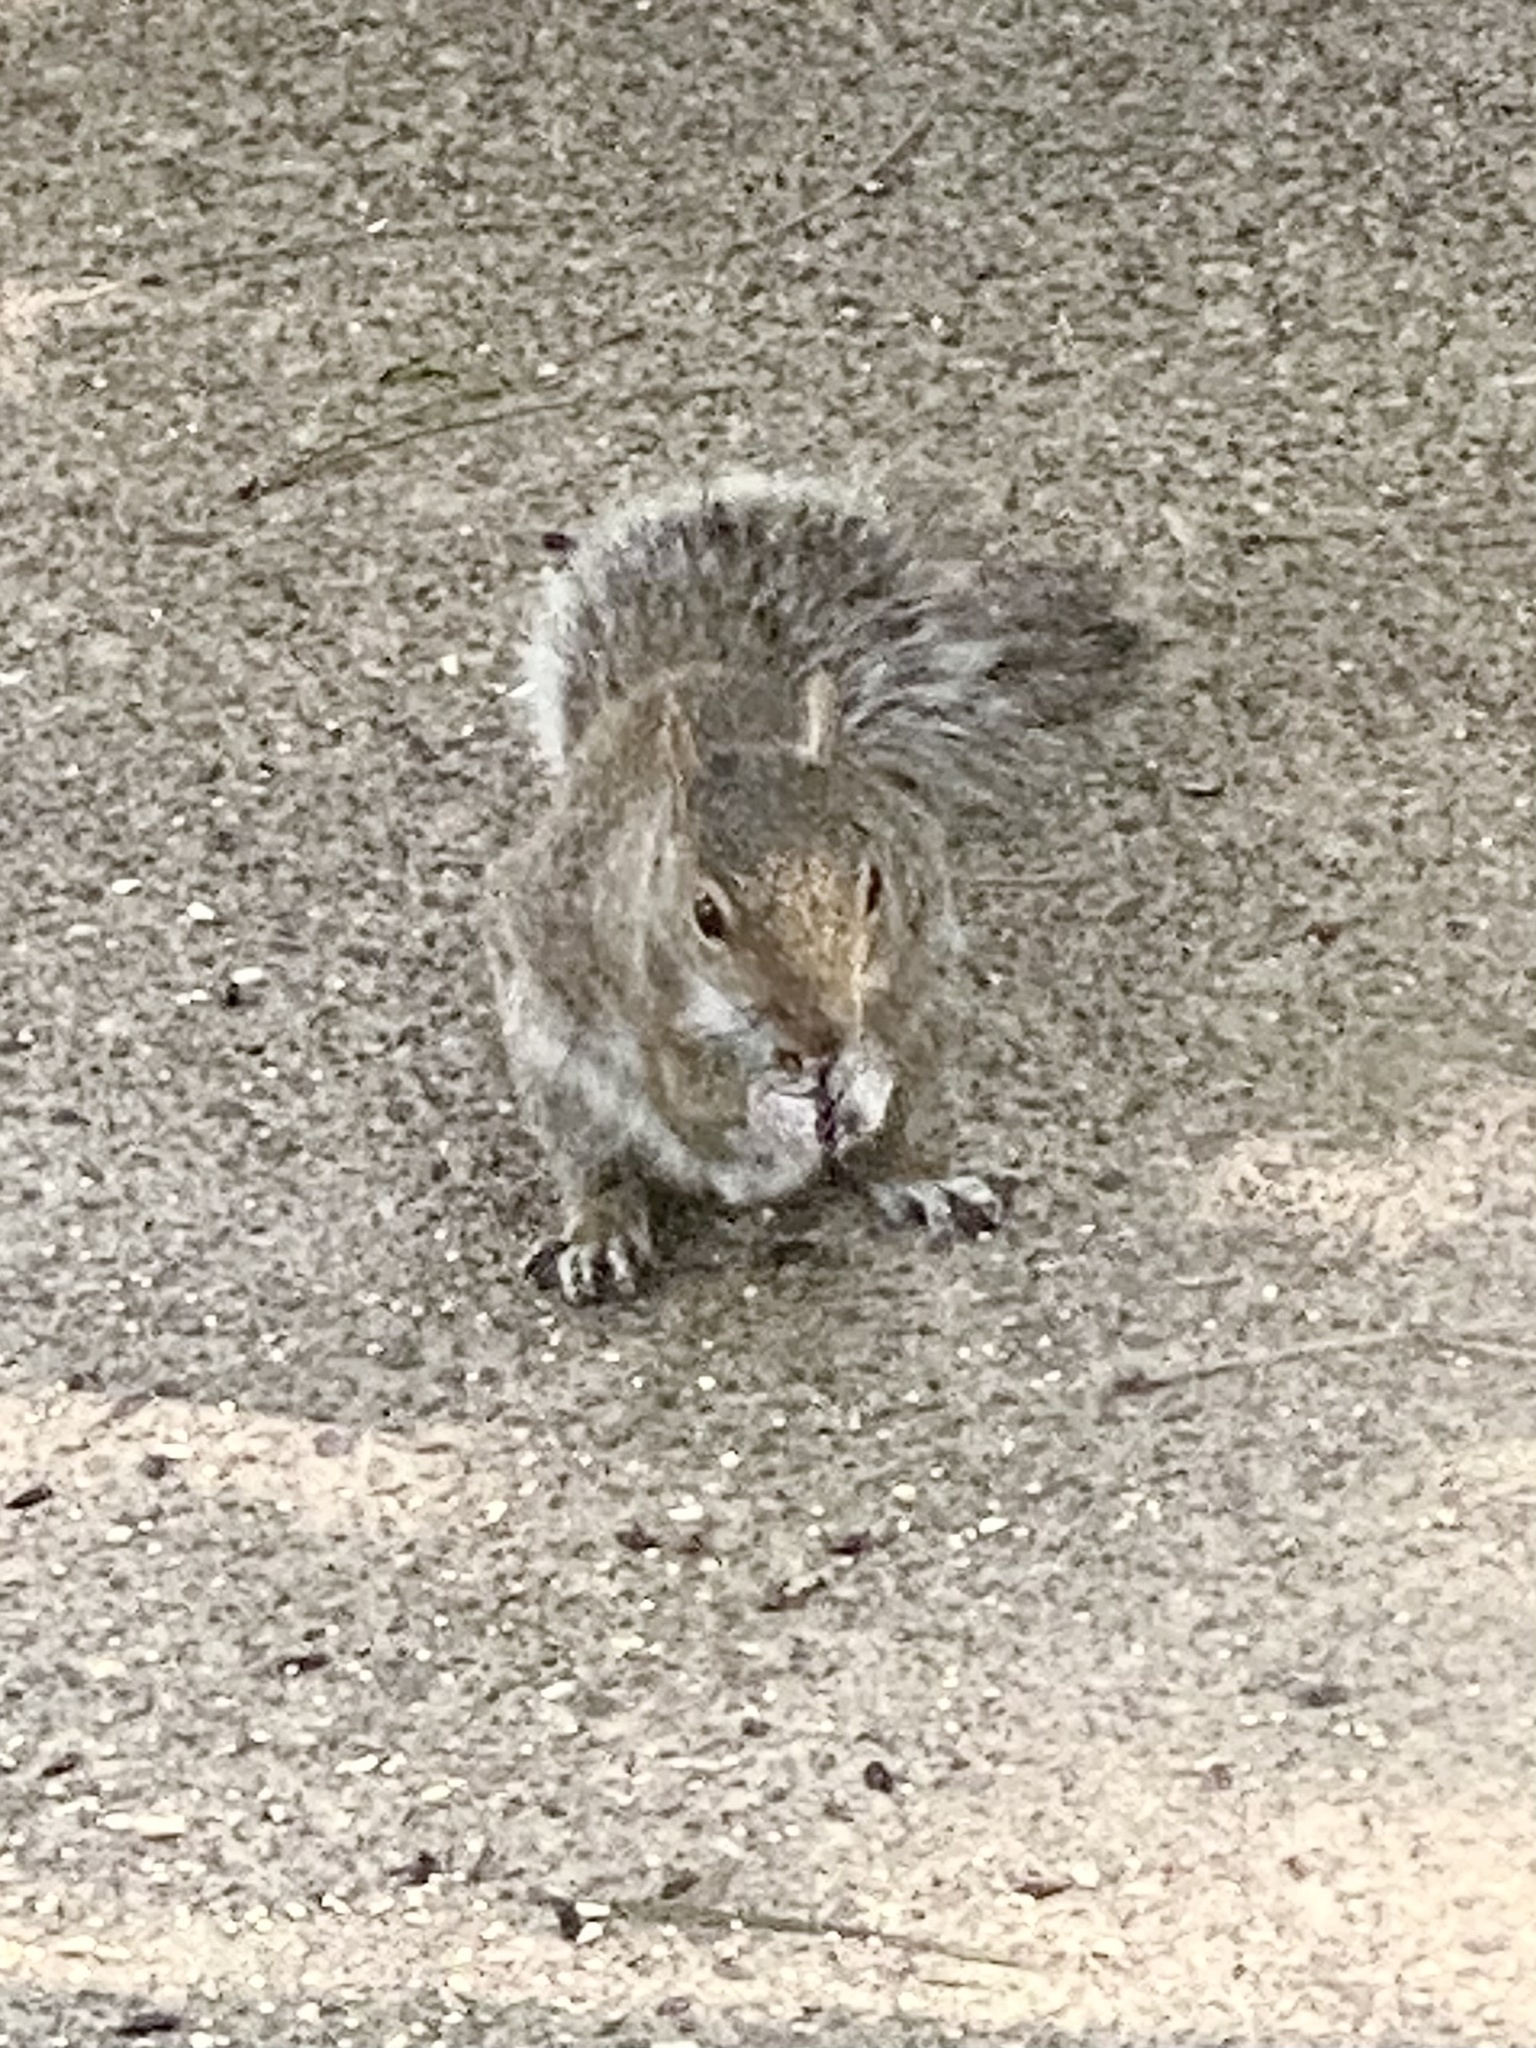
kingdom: Animalia
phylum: Chordata
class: Mammalia
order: Rodentia
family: Sciuridae
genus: Sciurus
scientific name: Sciurus carolinensis
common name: Eastern gray squirrel
